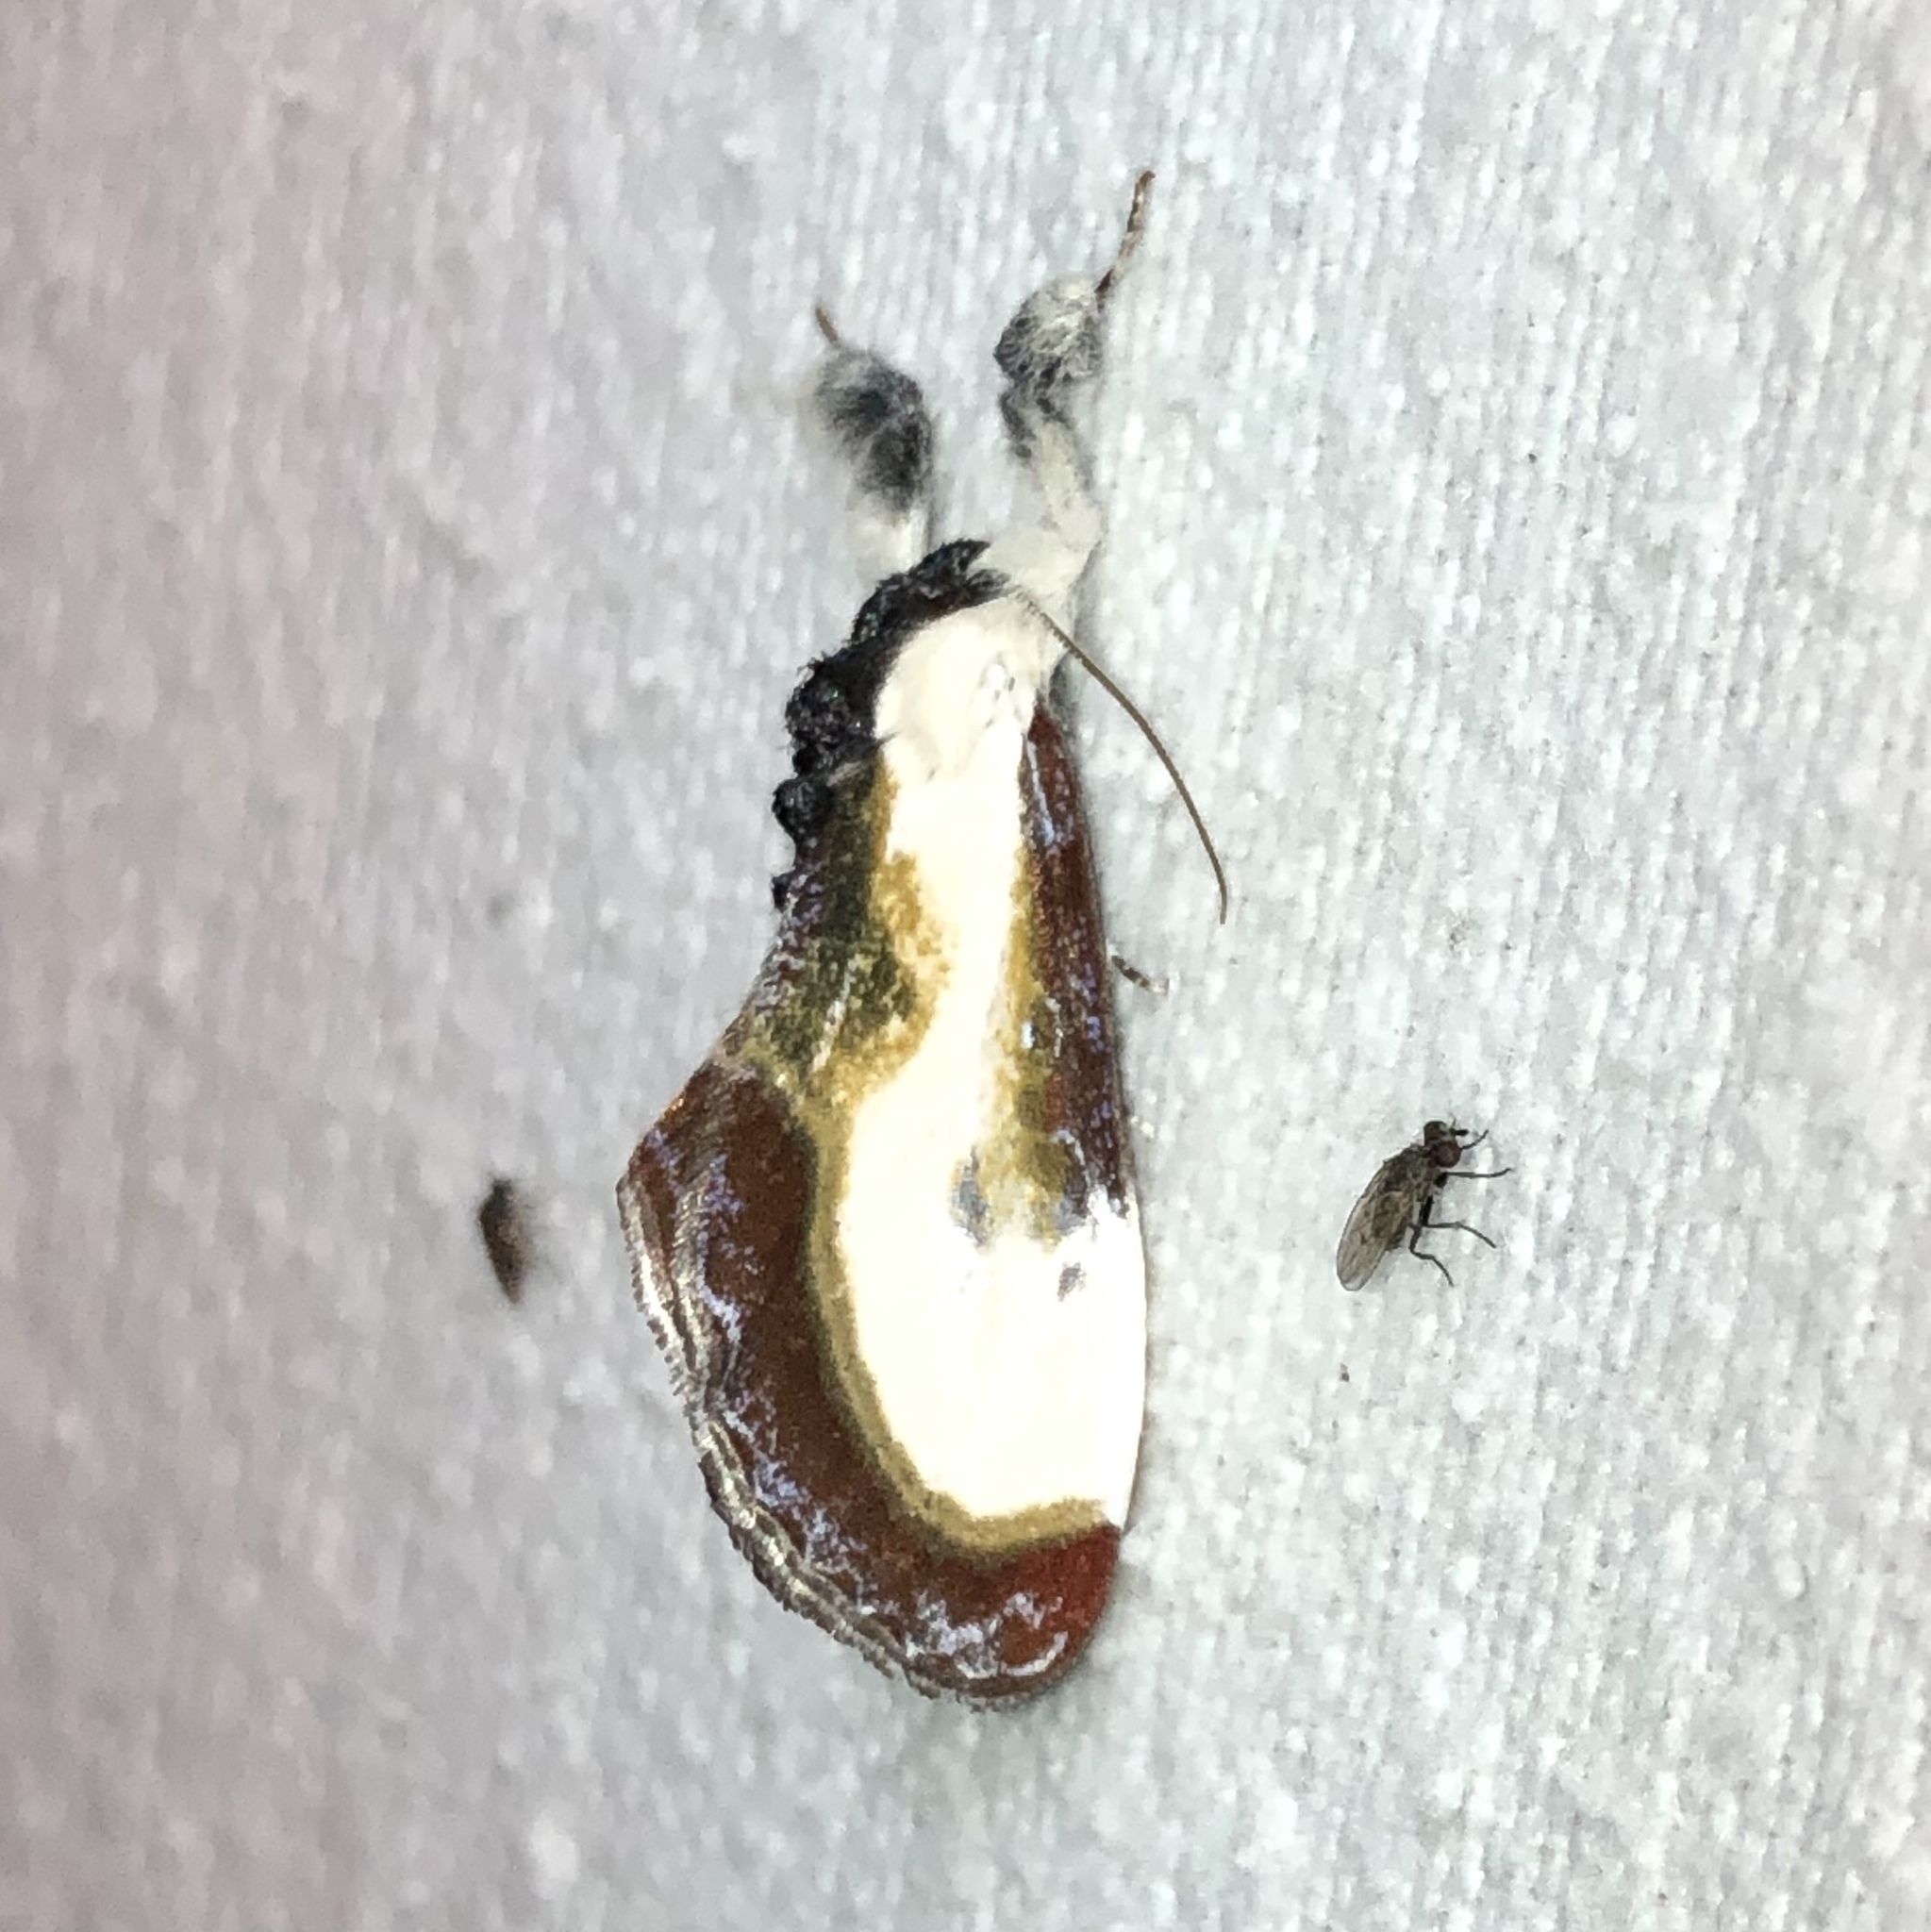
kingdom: Animalia
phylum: Arthropoda
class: Insecta
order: Lepidoptera
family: Noctuidae
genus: Eudryas
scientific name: Eudryas grata
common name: Beautiful wood-nymph
